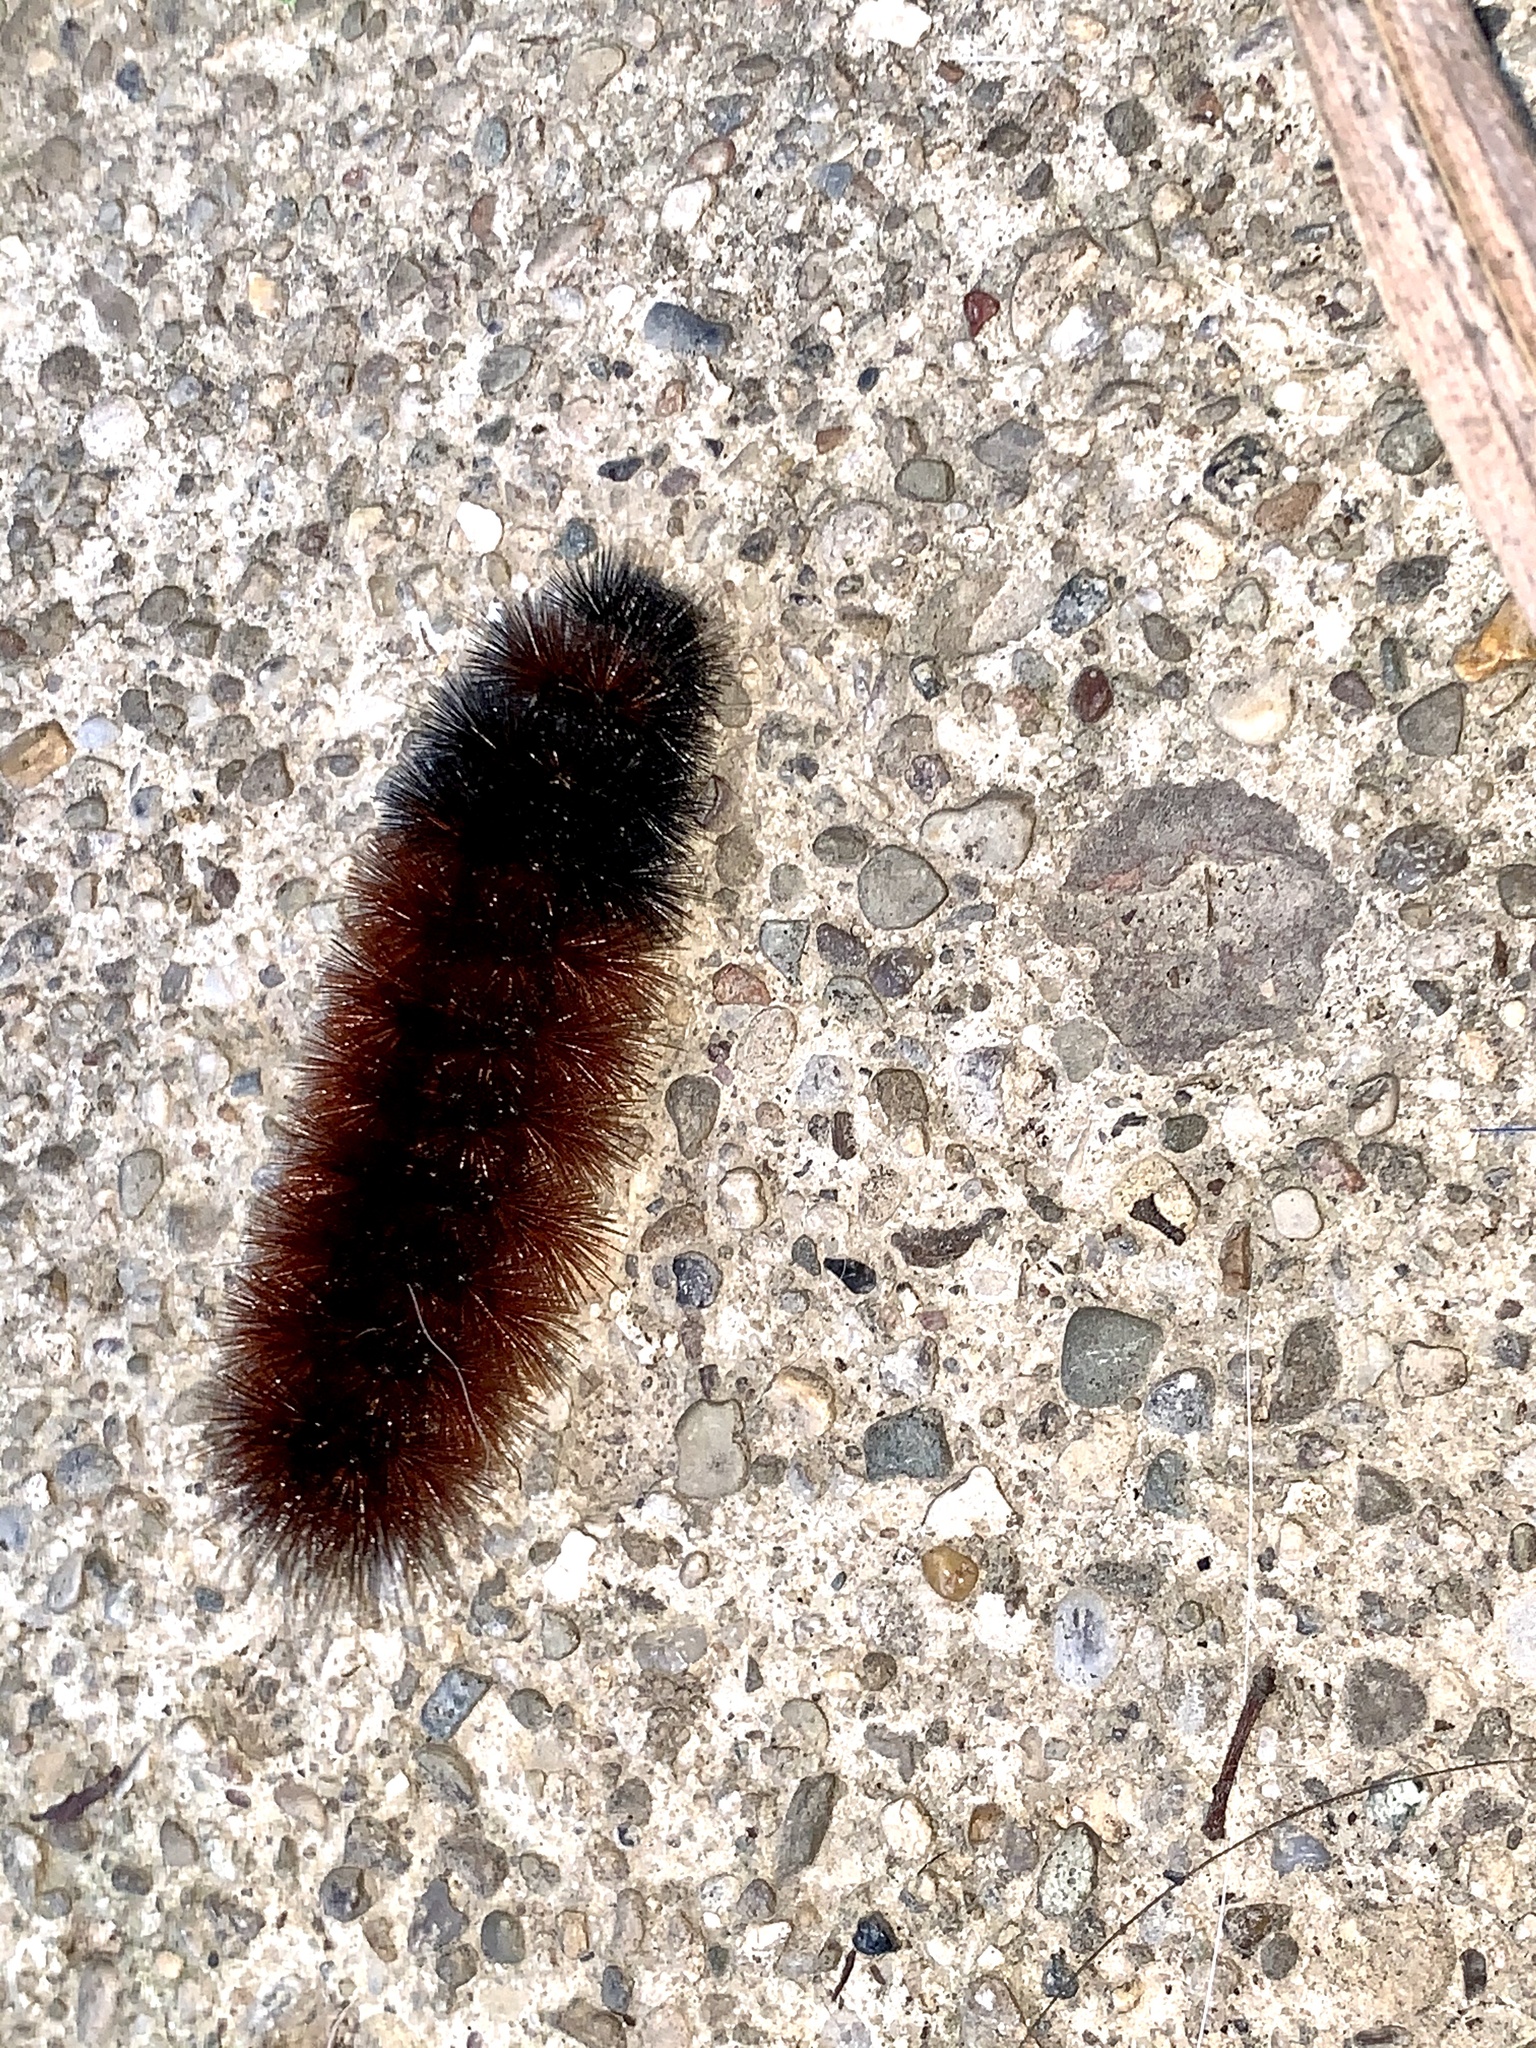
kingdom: Animalia
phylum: Arthropoda
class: Insecta
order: Lepidoptera
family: Erebidae
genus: Pyrrharctia
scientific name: Pyrrharctia isabella
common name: Isabella tiger moth
